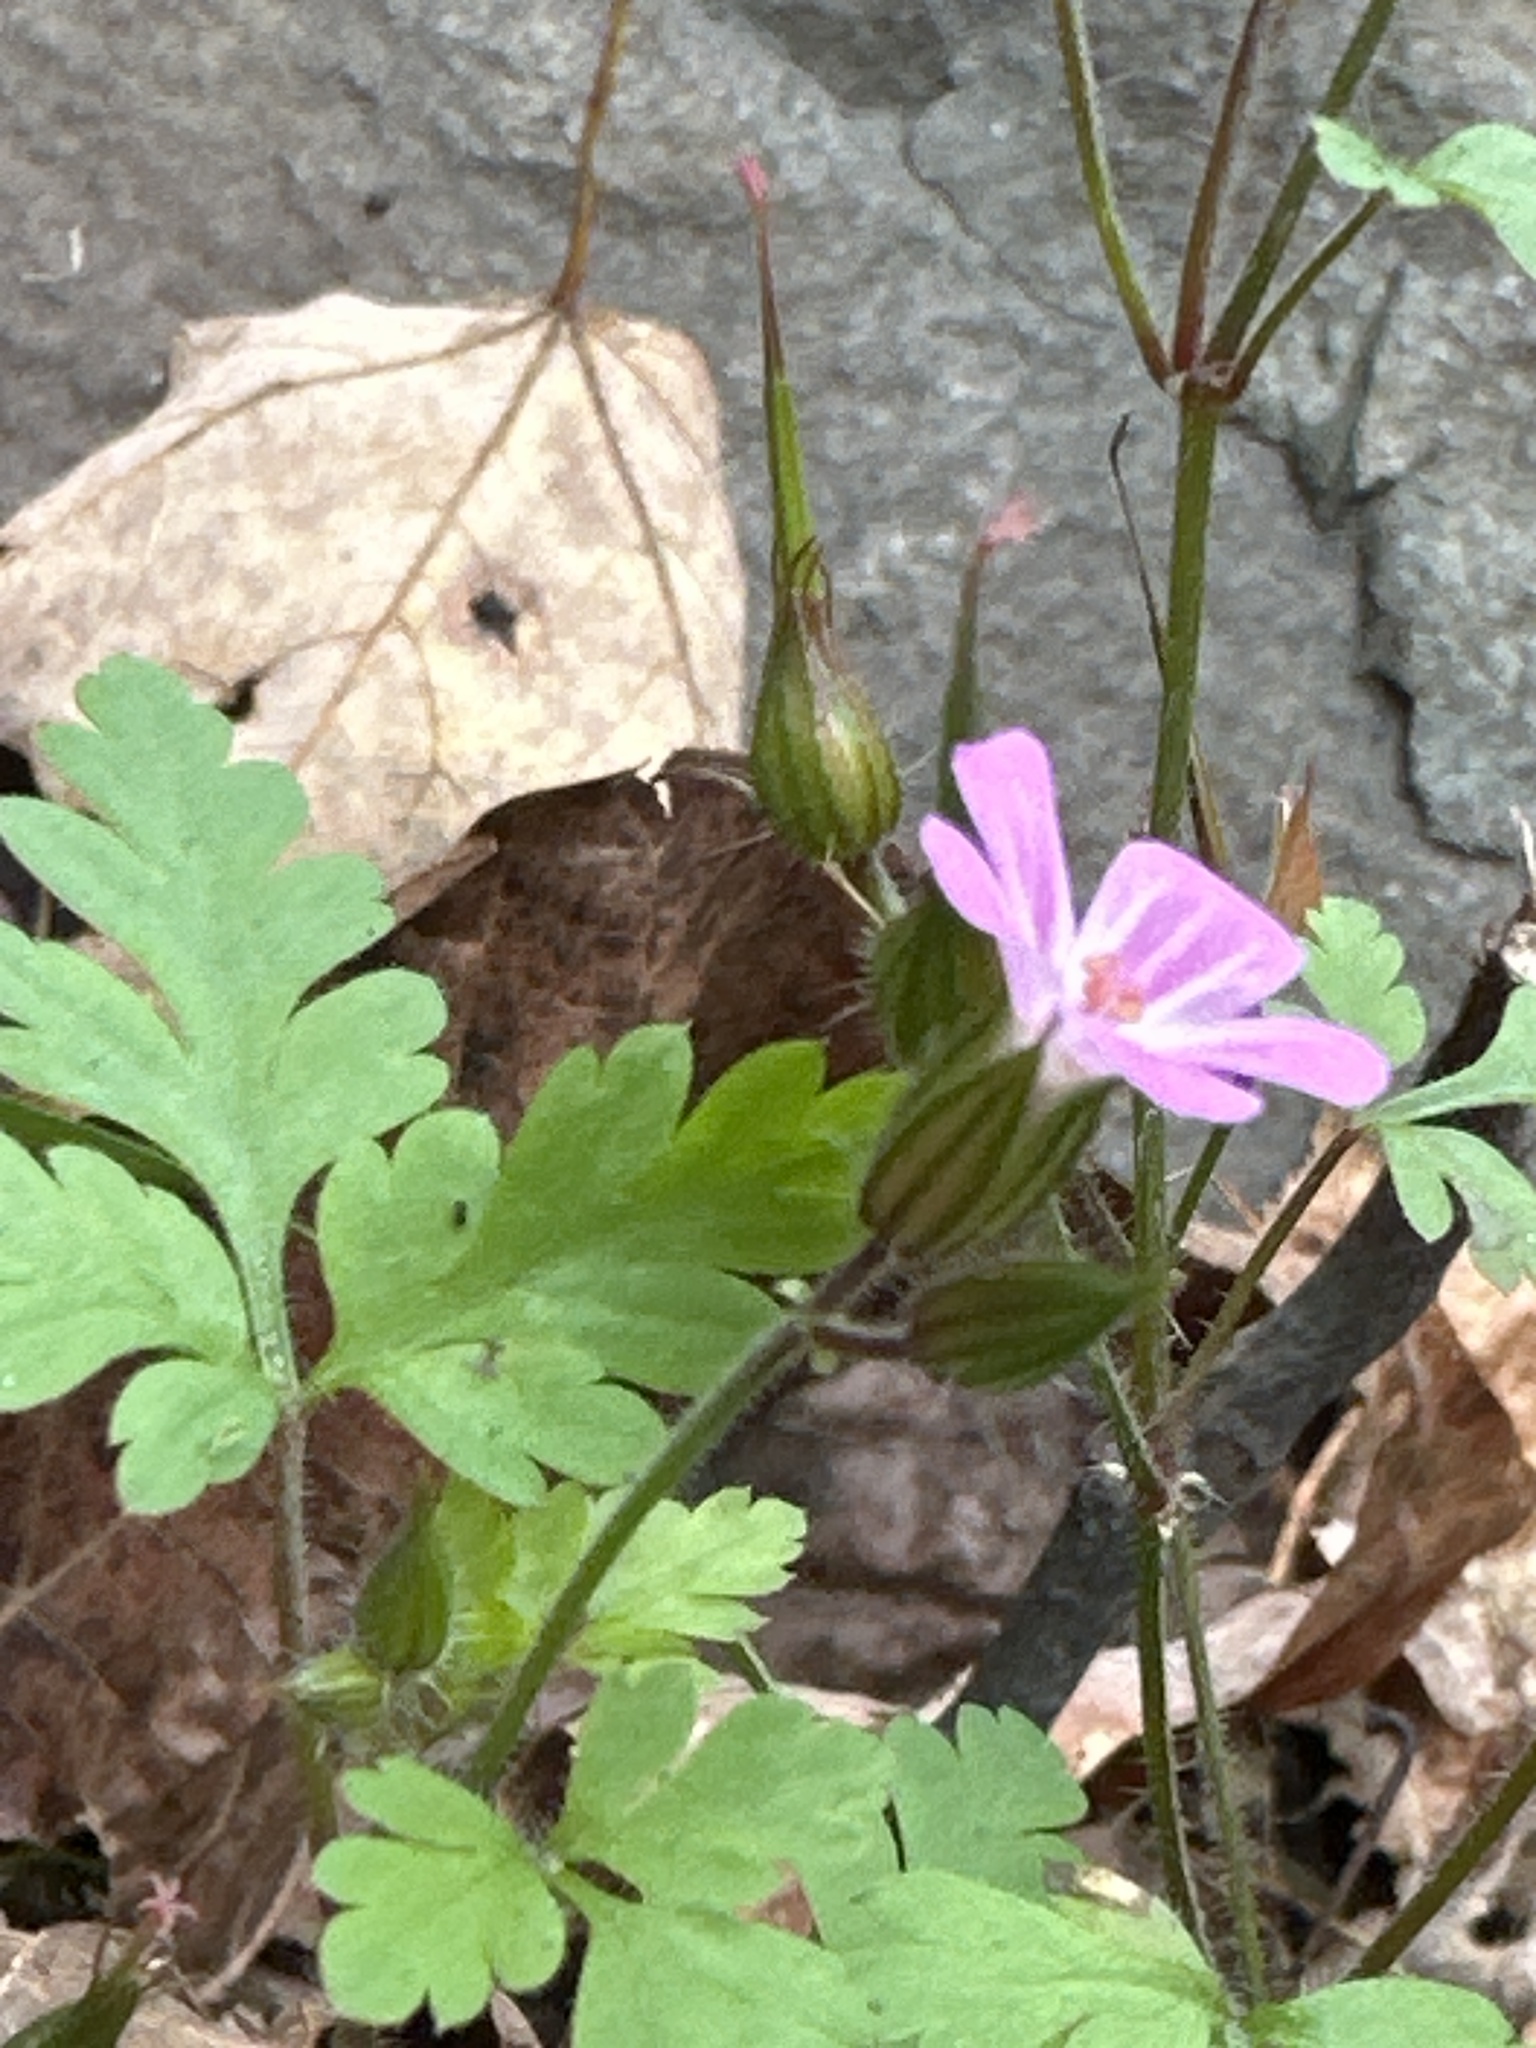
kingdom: Plantae
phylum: Tracheophyta
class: Magnoliopsida
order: Geraniales
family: Geraniaceae
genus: Geranium
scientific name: Geranium robertianum
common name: Herb-robert
